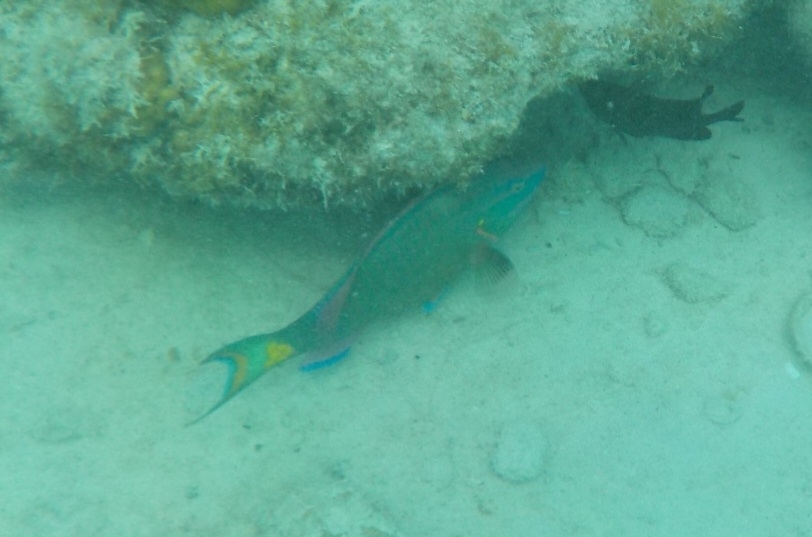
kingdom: Animalia
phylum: Chordata
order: Perciformes
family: Scaridae
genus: Sparisoma
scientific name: Sparisoma viride
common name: Stoplight parrotfish
